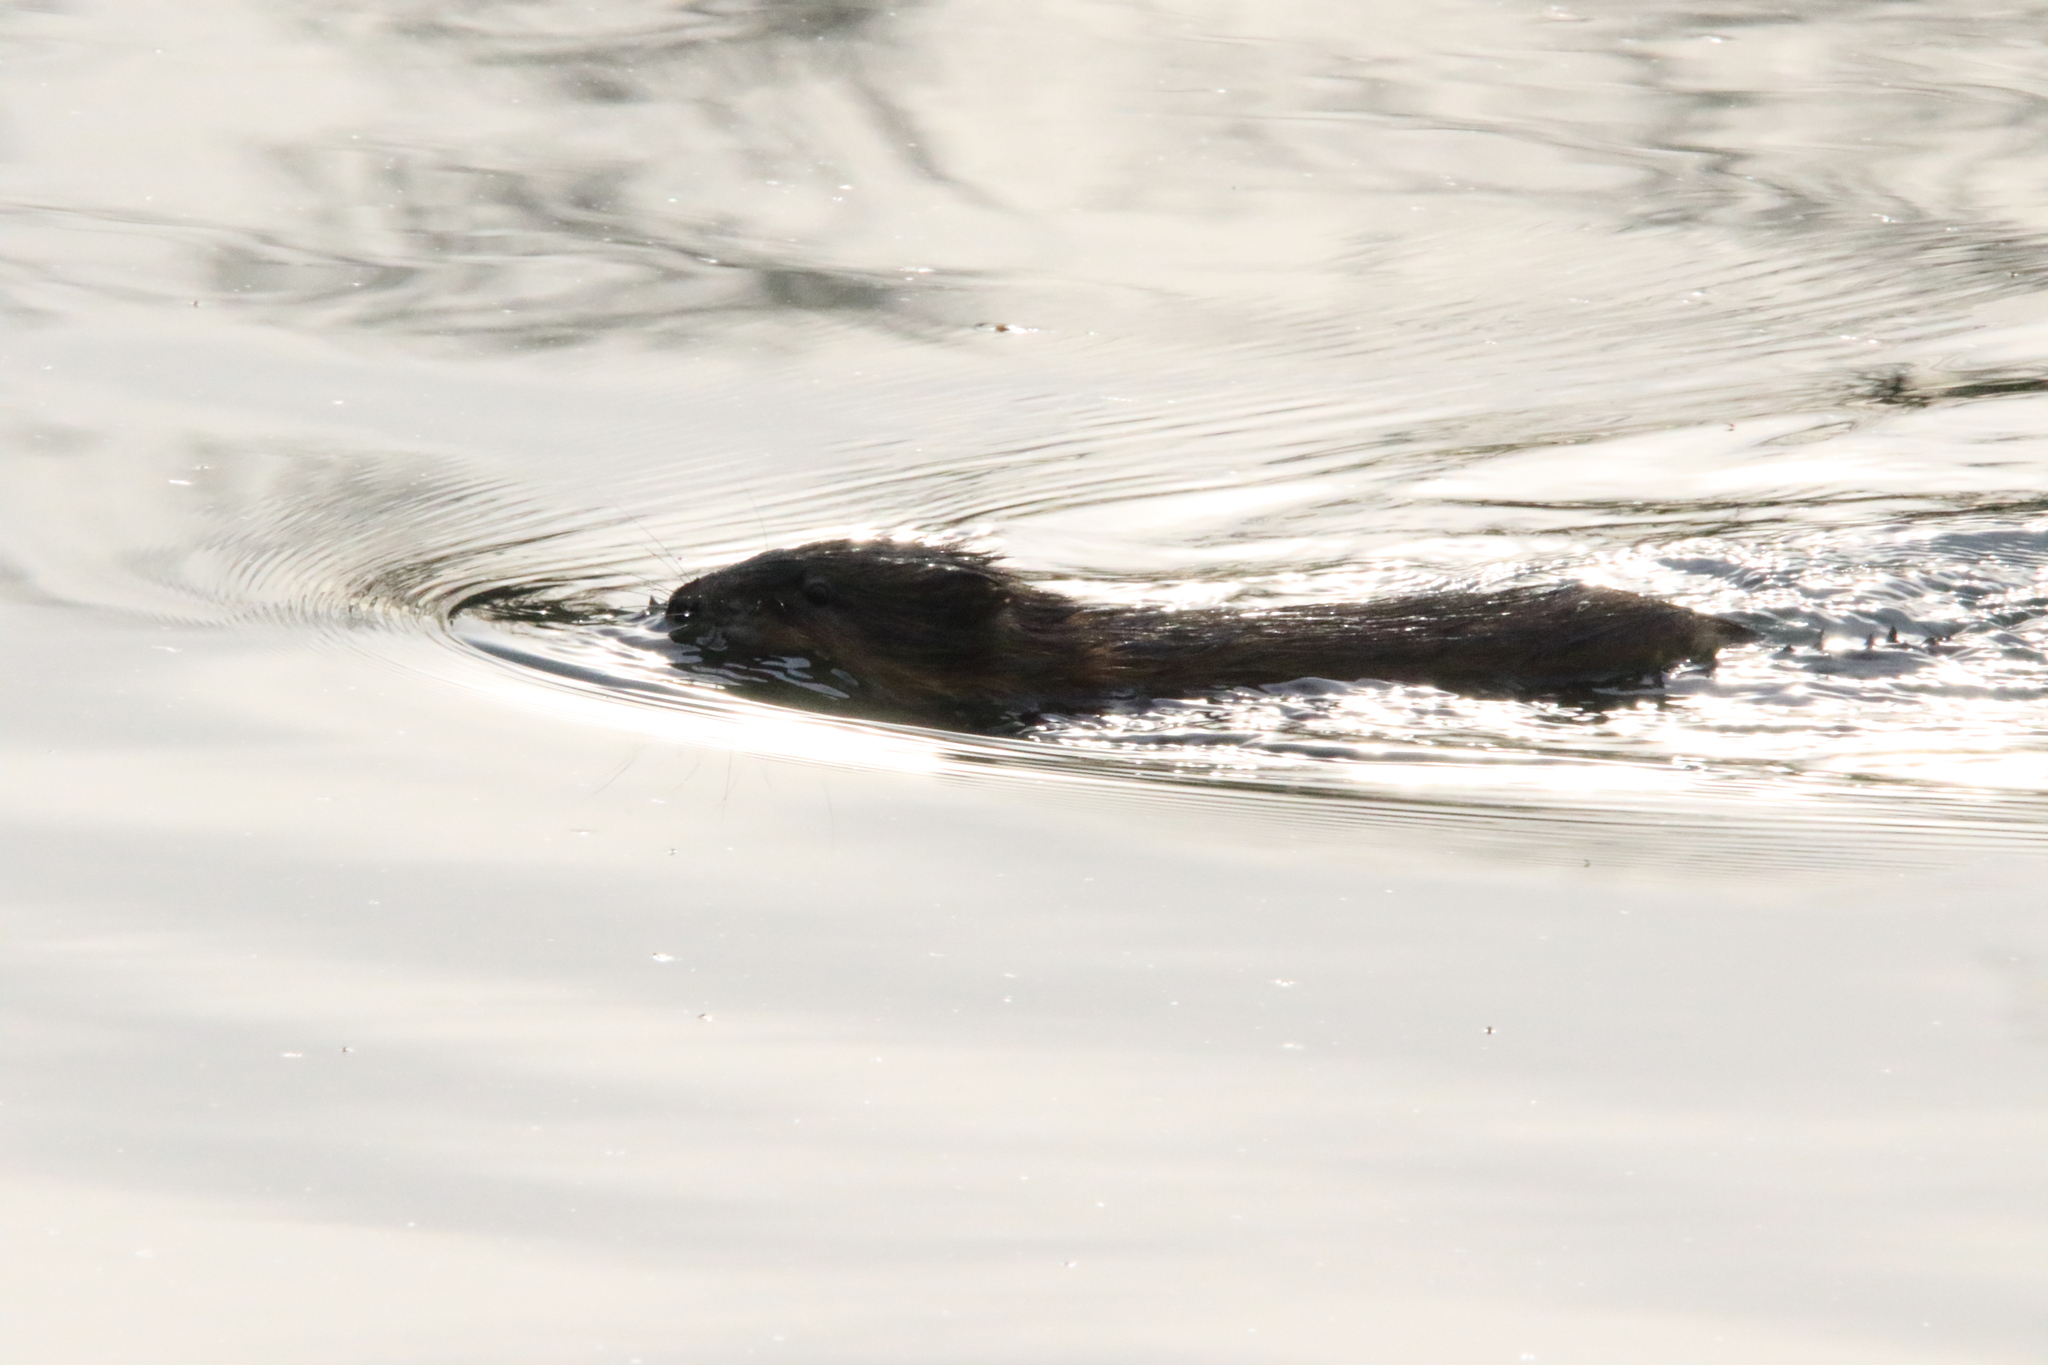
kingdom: Animalia
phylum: Chordata
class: Mammalia
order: Rodentia
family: Cricetidae
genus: Ondatra
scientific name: Ondatra zibethicus
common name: Muskrat
